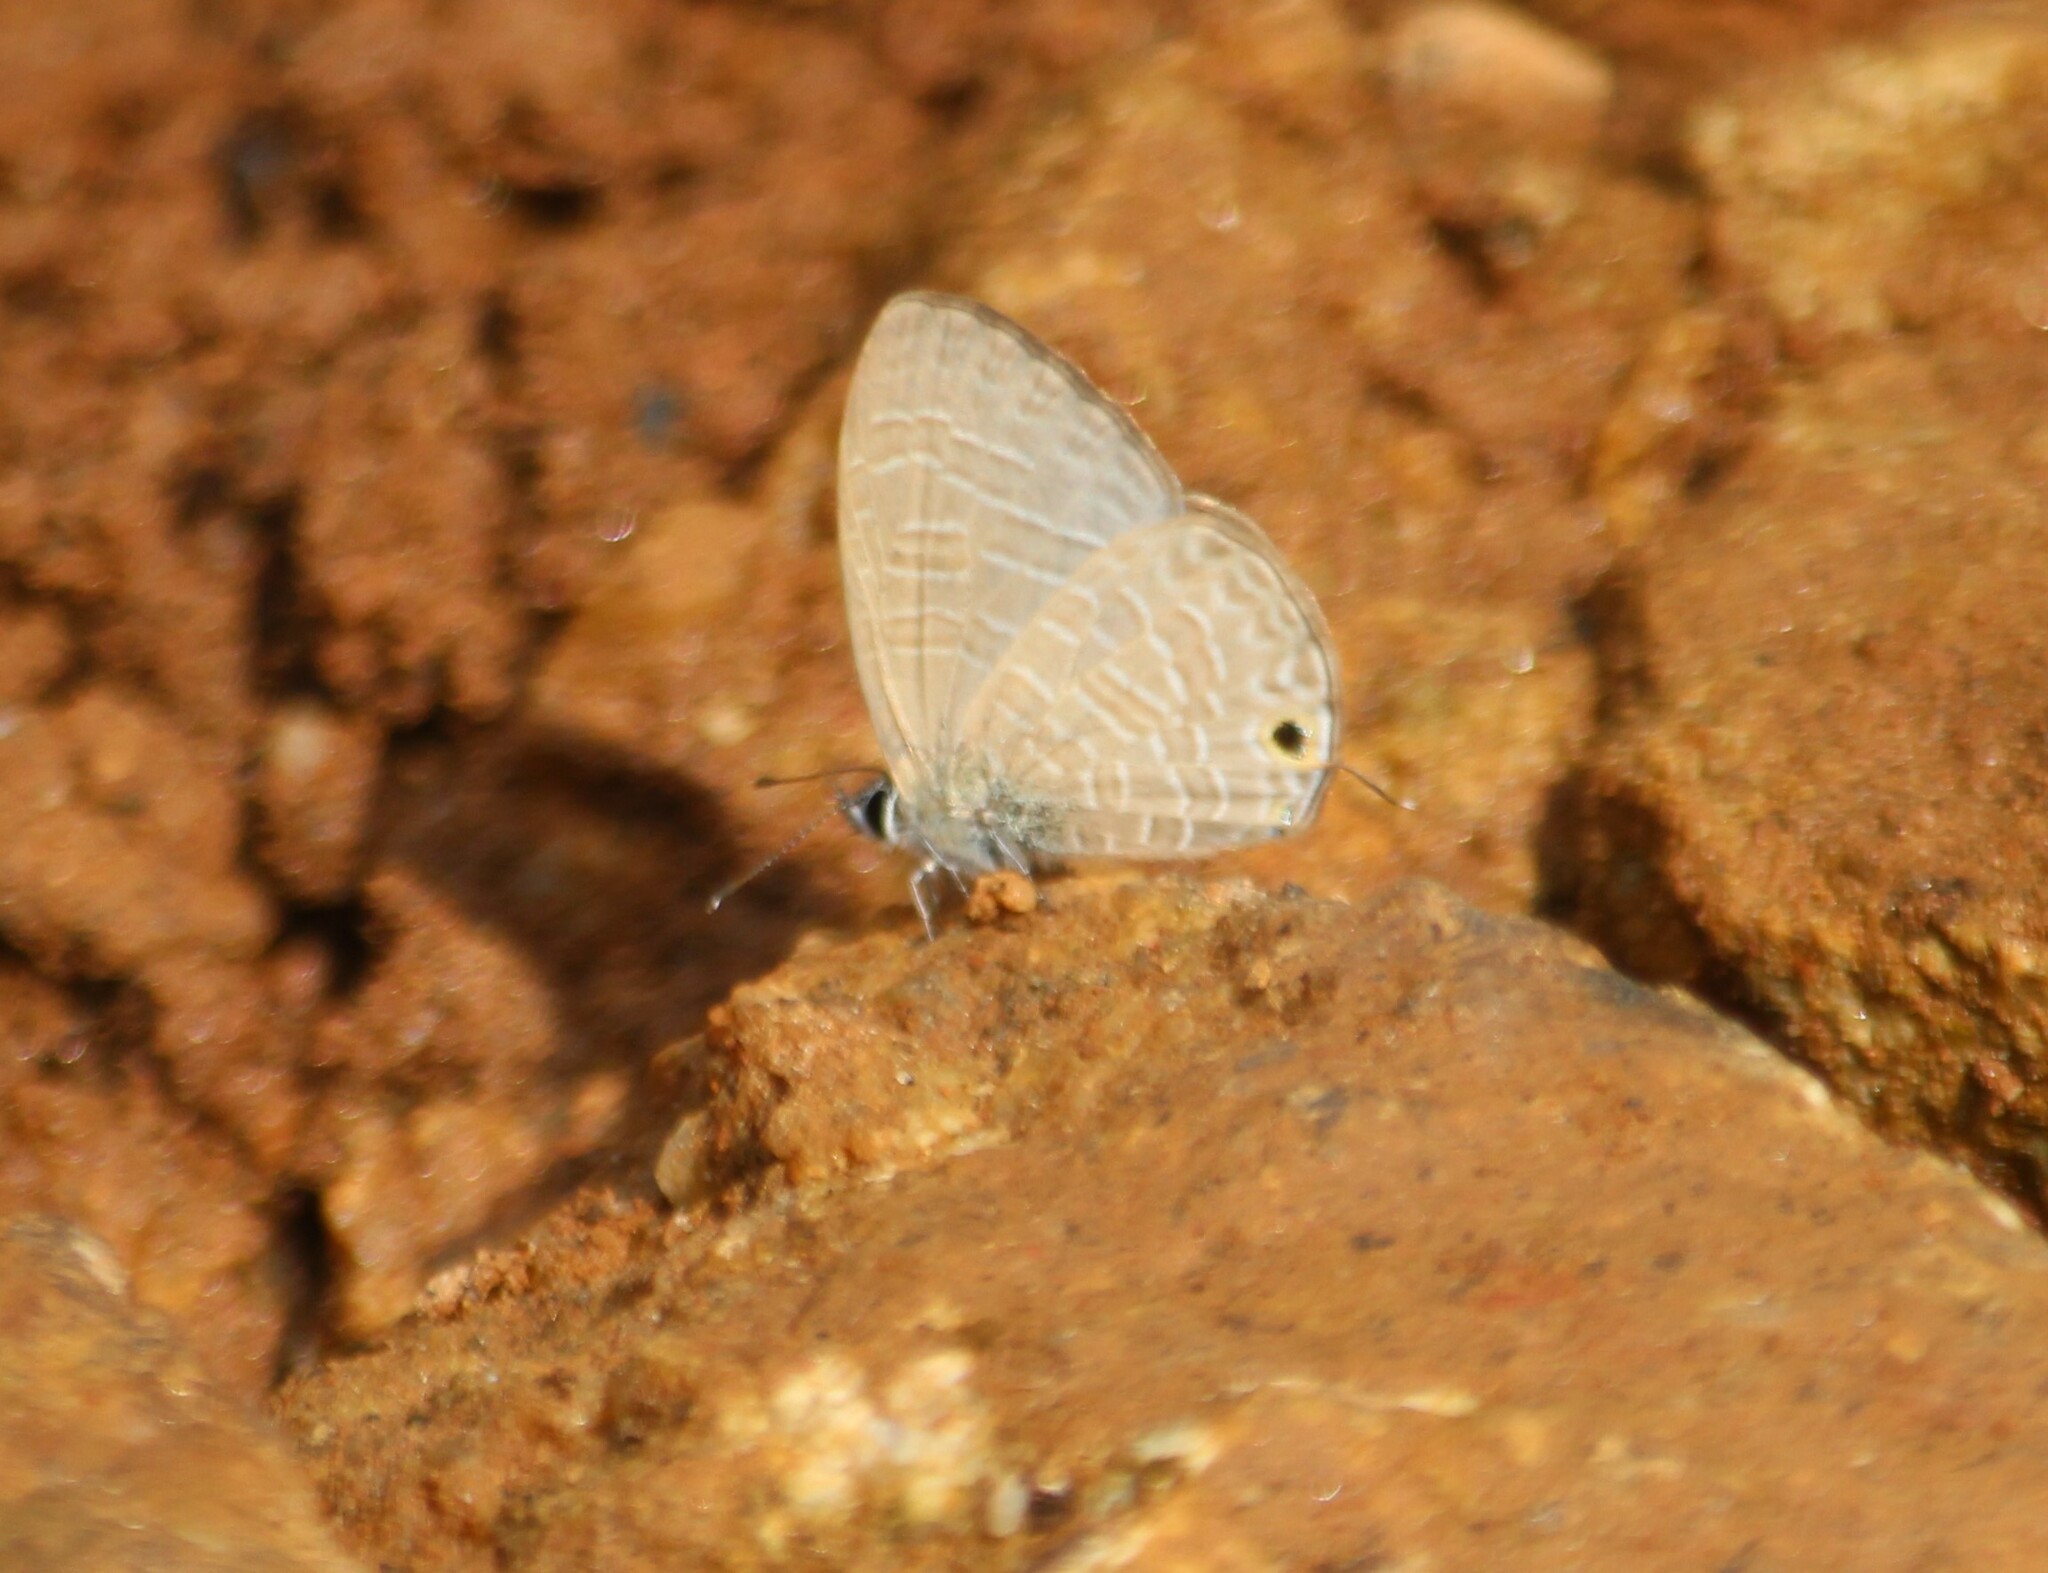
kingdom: Animalia
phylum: Arthropoda
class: Insecta
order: Lepidoptera
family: Lycaenidae
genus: Nacaduba
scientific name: Nacaduba berenice
